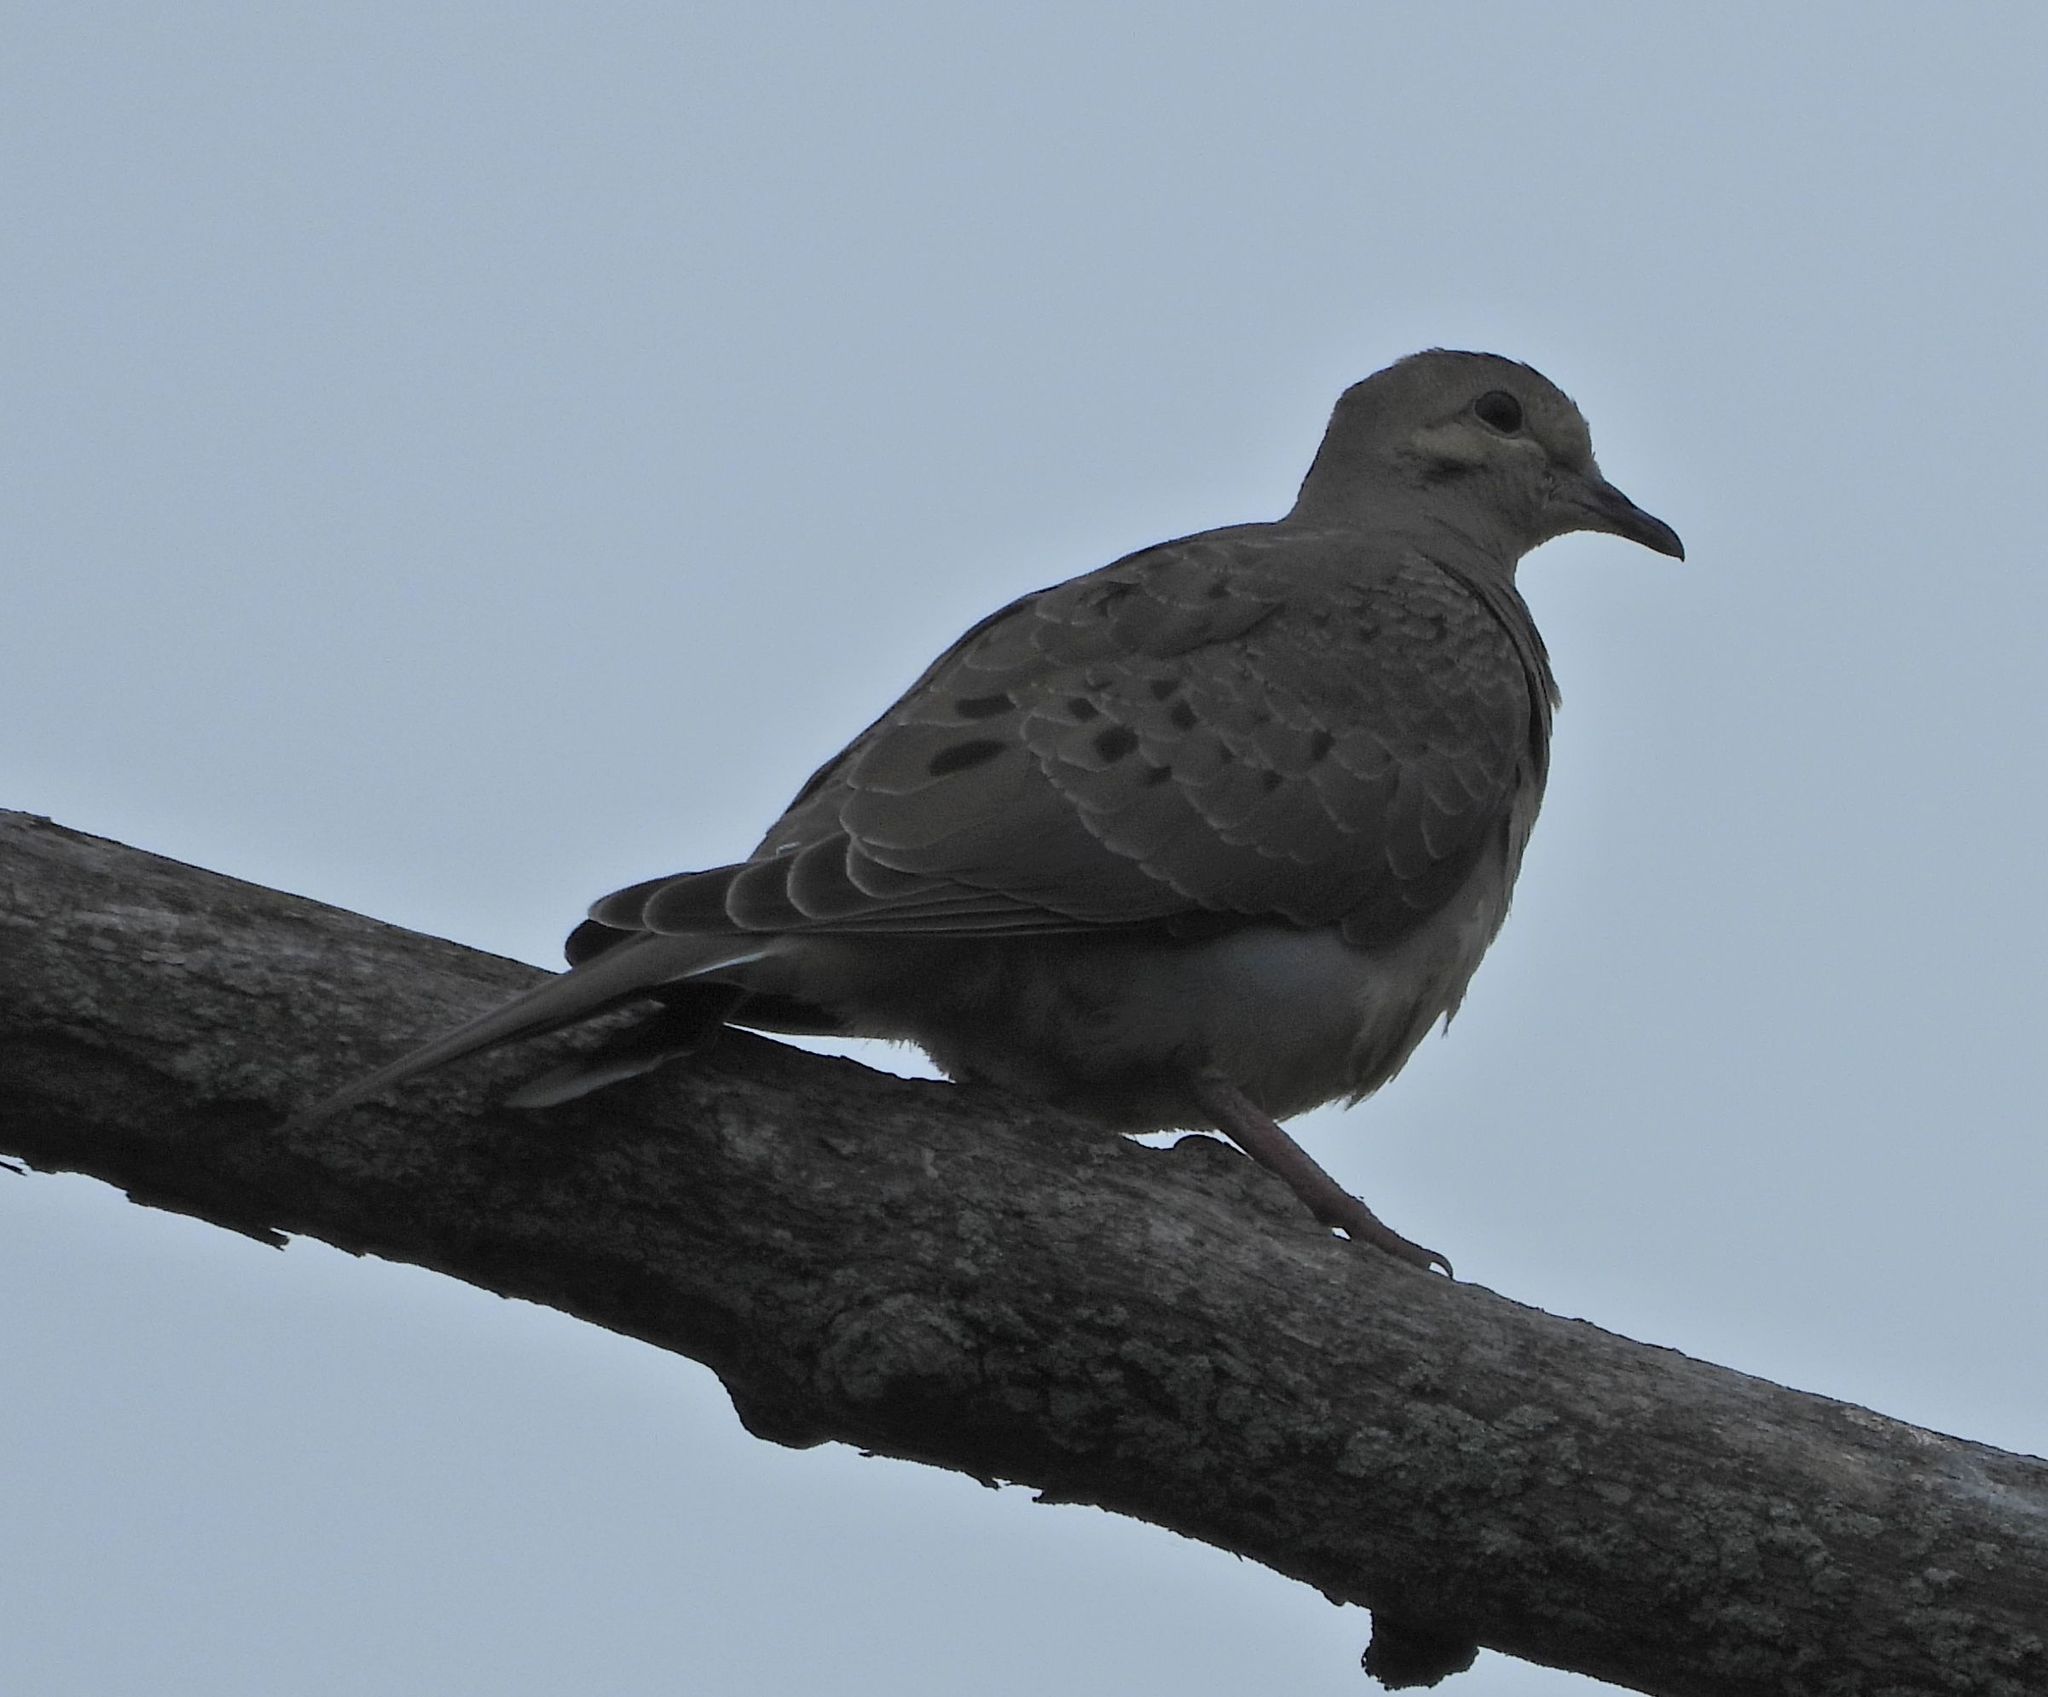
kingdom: Animalia
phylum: Chordata
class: Aves
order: Columbiformes
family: Columbidae
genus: Zenaida
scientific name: Zenaida macroura
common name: Mourning dove
